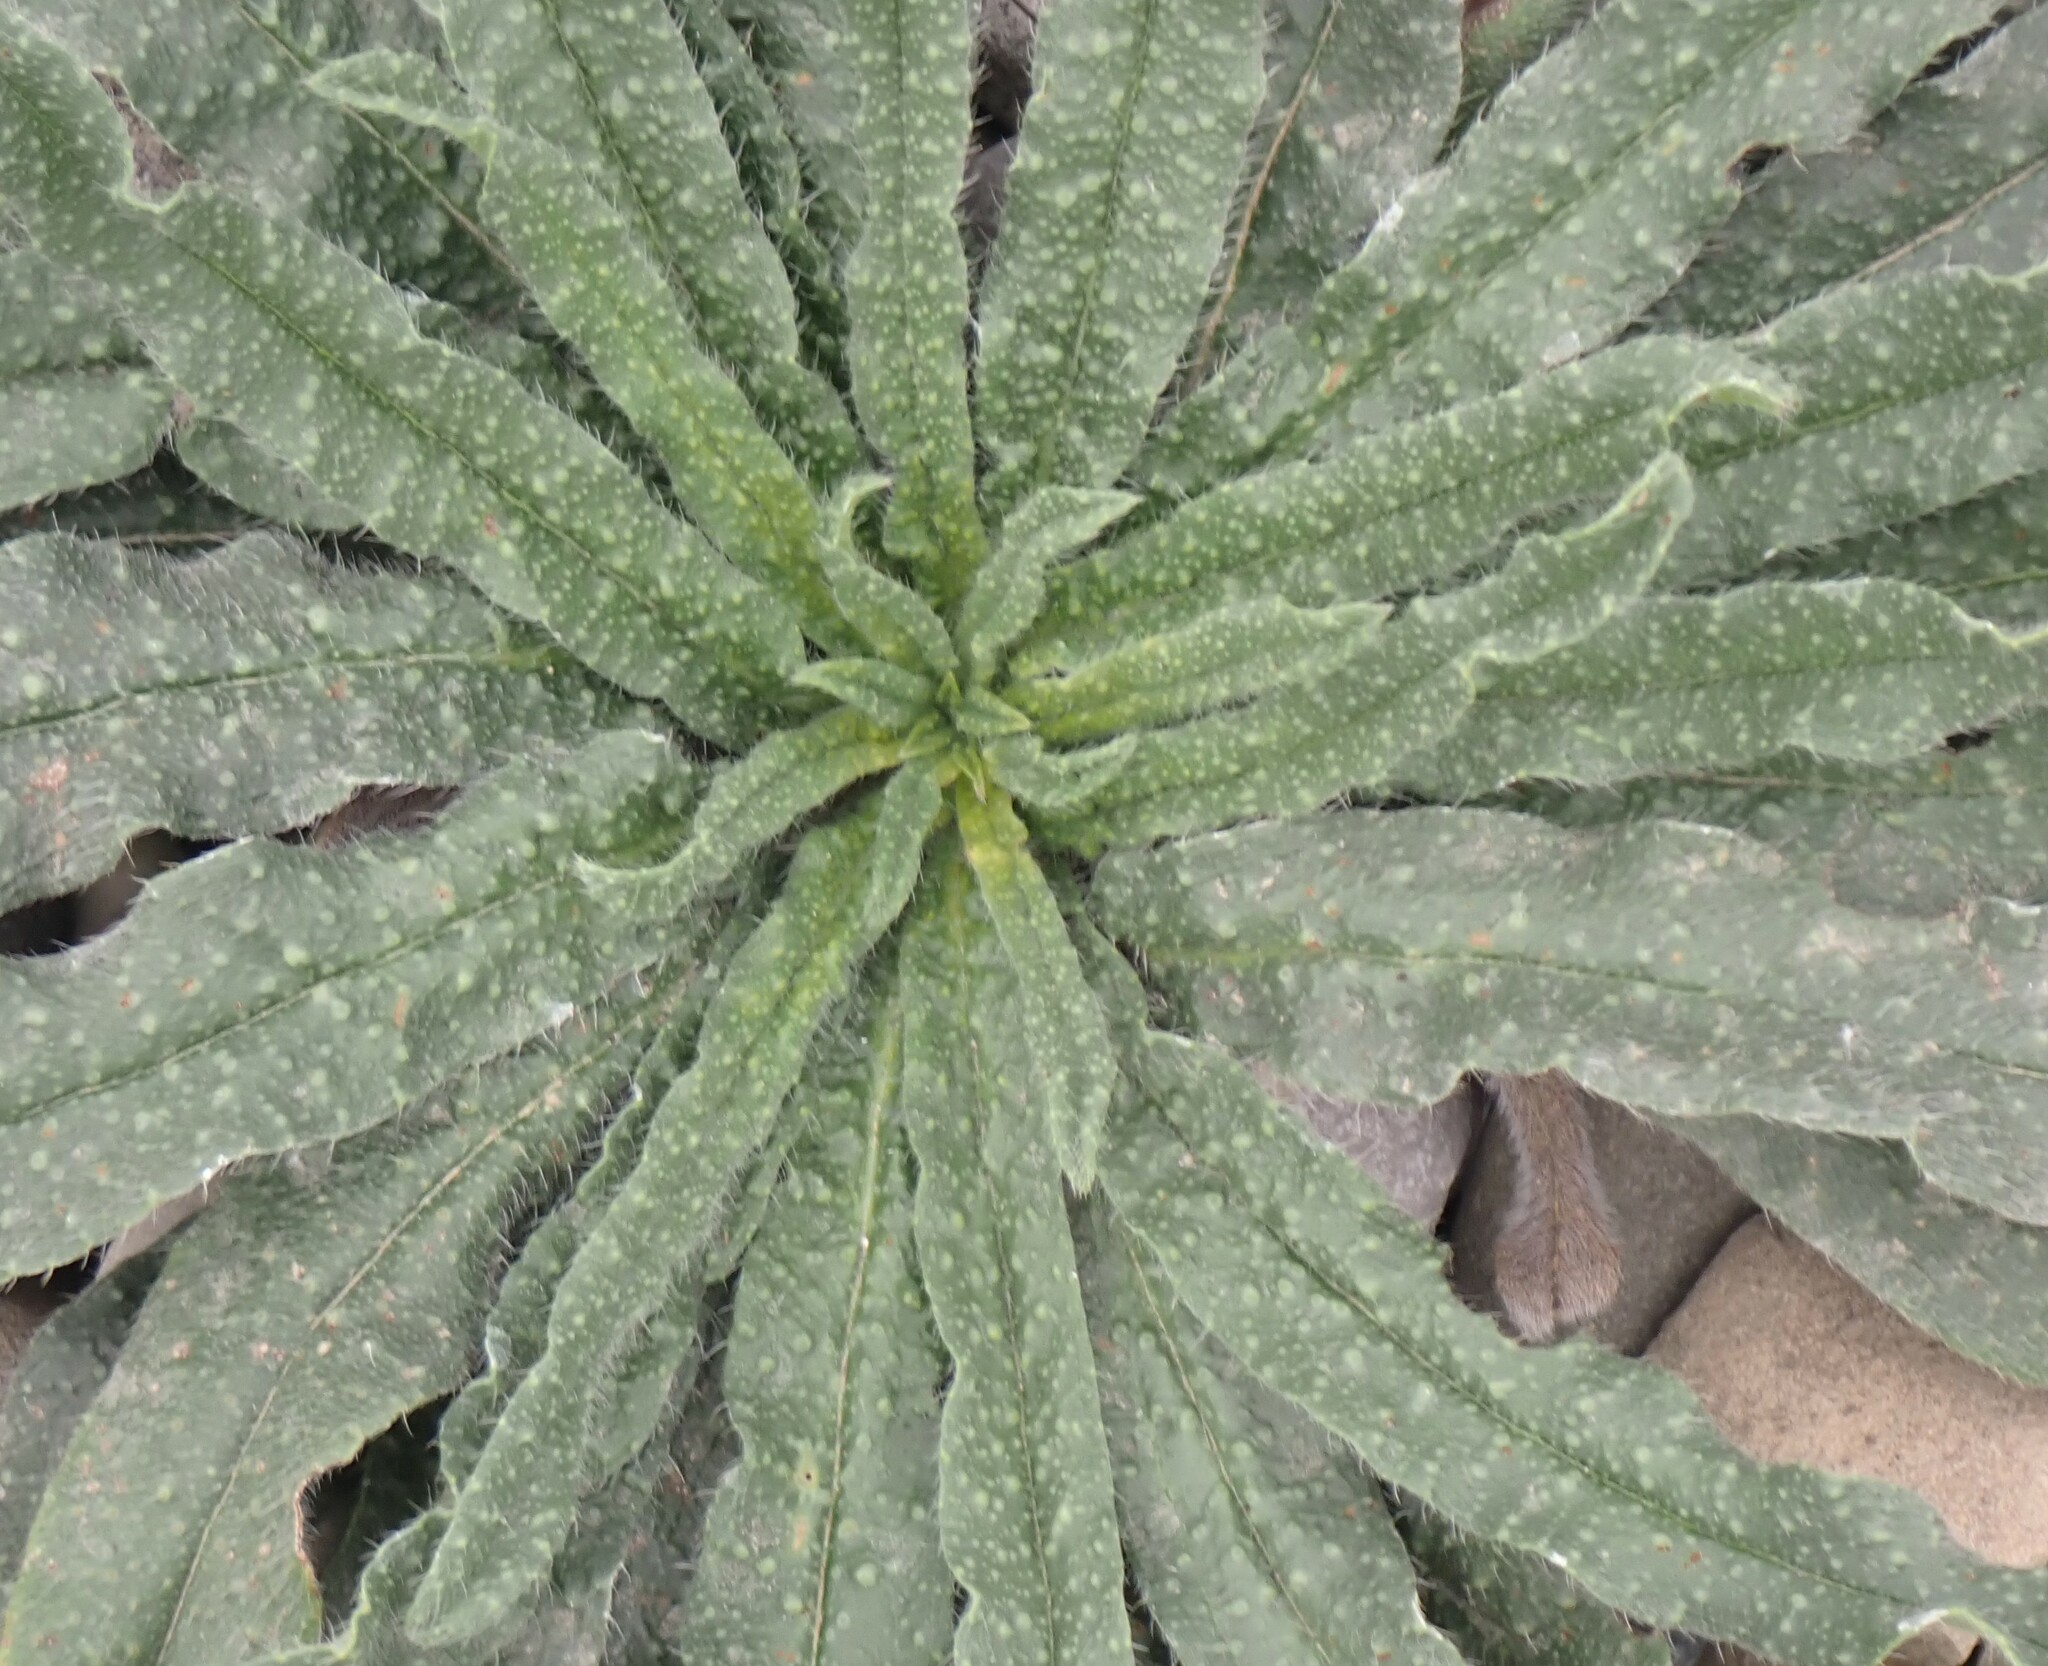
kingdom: Plantae
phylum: Tracheophyta
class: Magnoliopsida
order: Boraginales
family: Boraginaceae
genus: Echium
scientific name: Echium vulgare
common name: Common viper's bugloss
